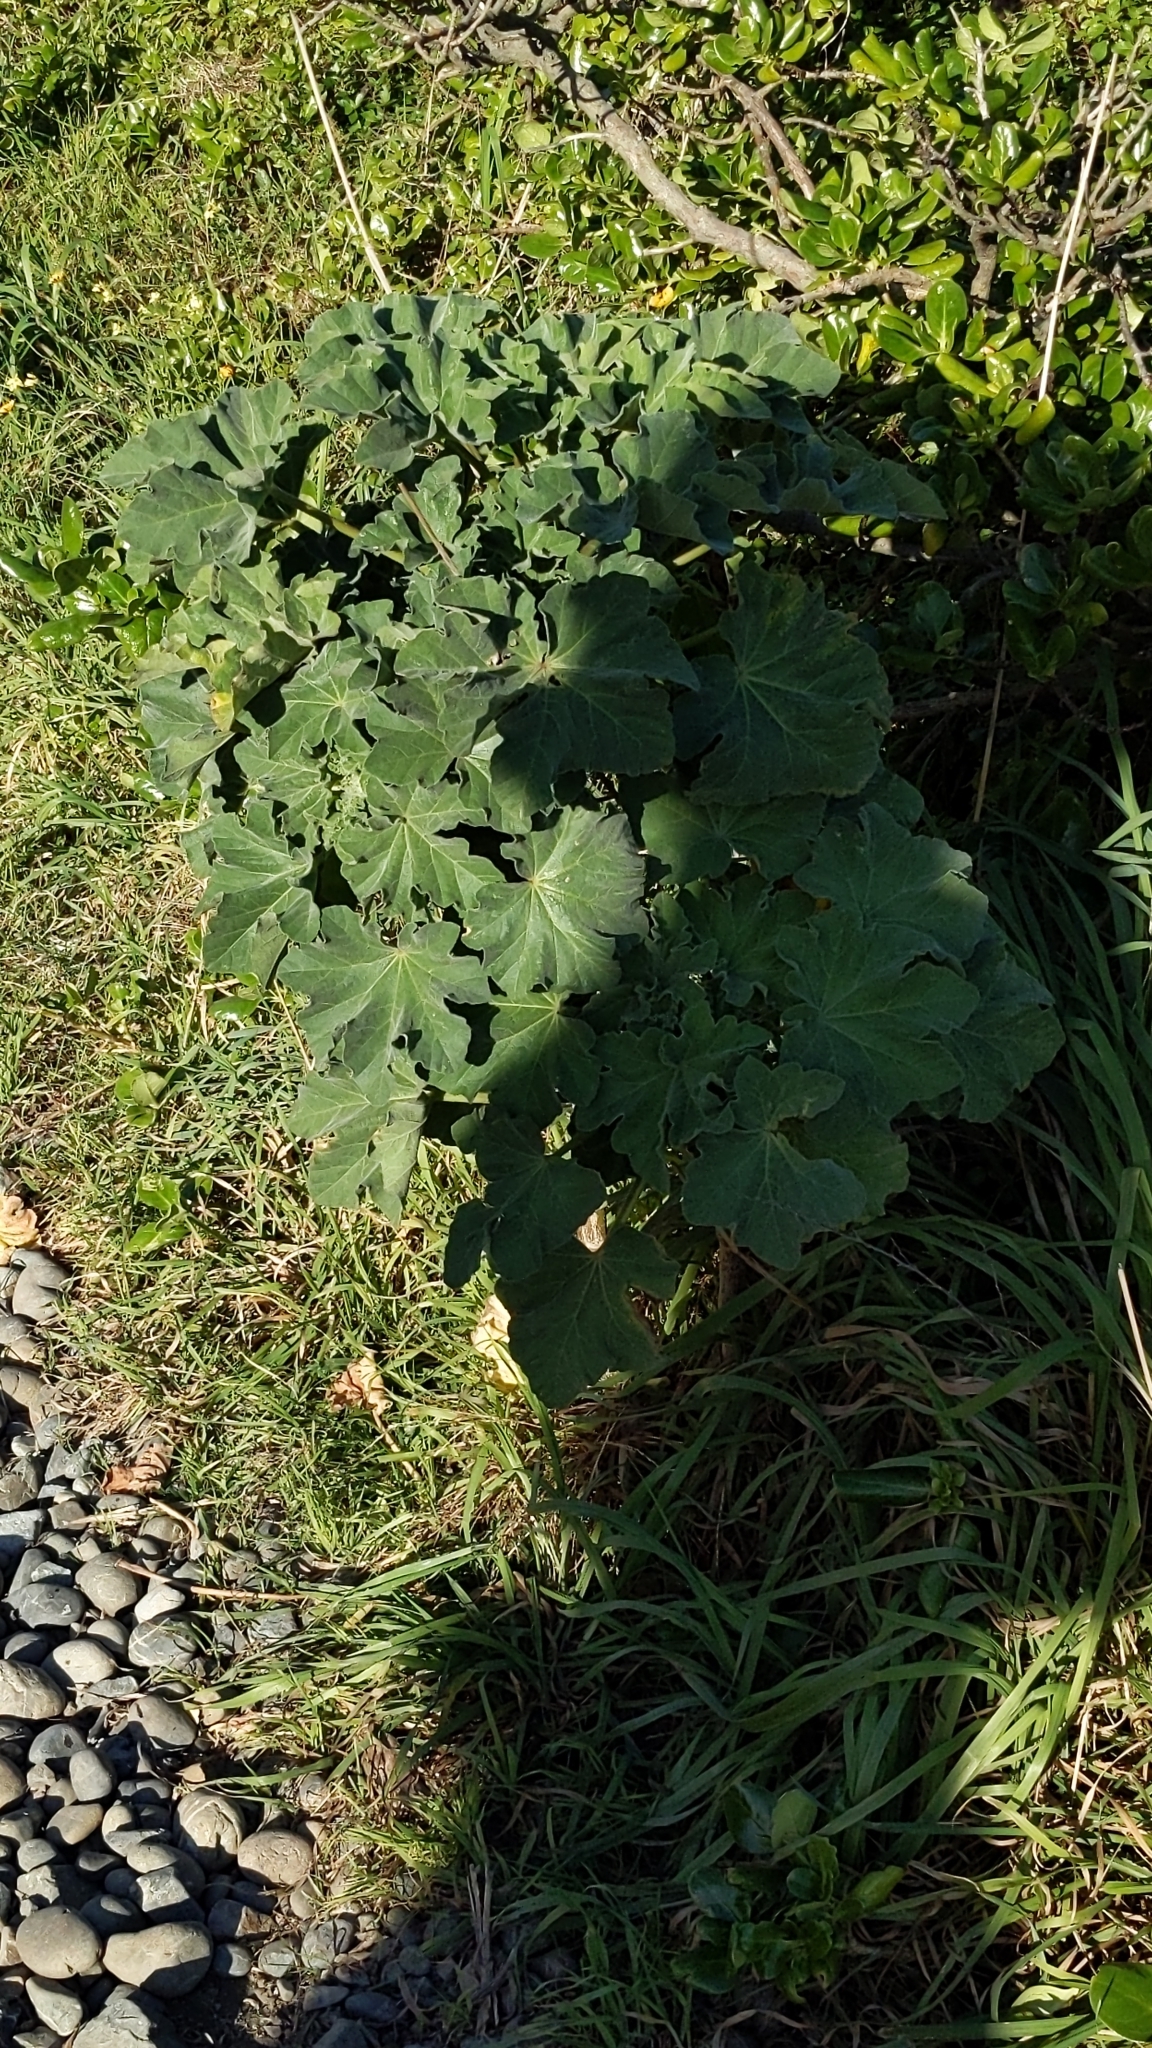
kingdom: Plantae
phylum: Tracheophyta
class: Magnoliopsida
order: Malvales
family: Malvaceae
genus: Malva
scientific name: Malva arborea
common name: Tree mallow
